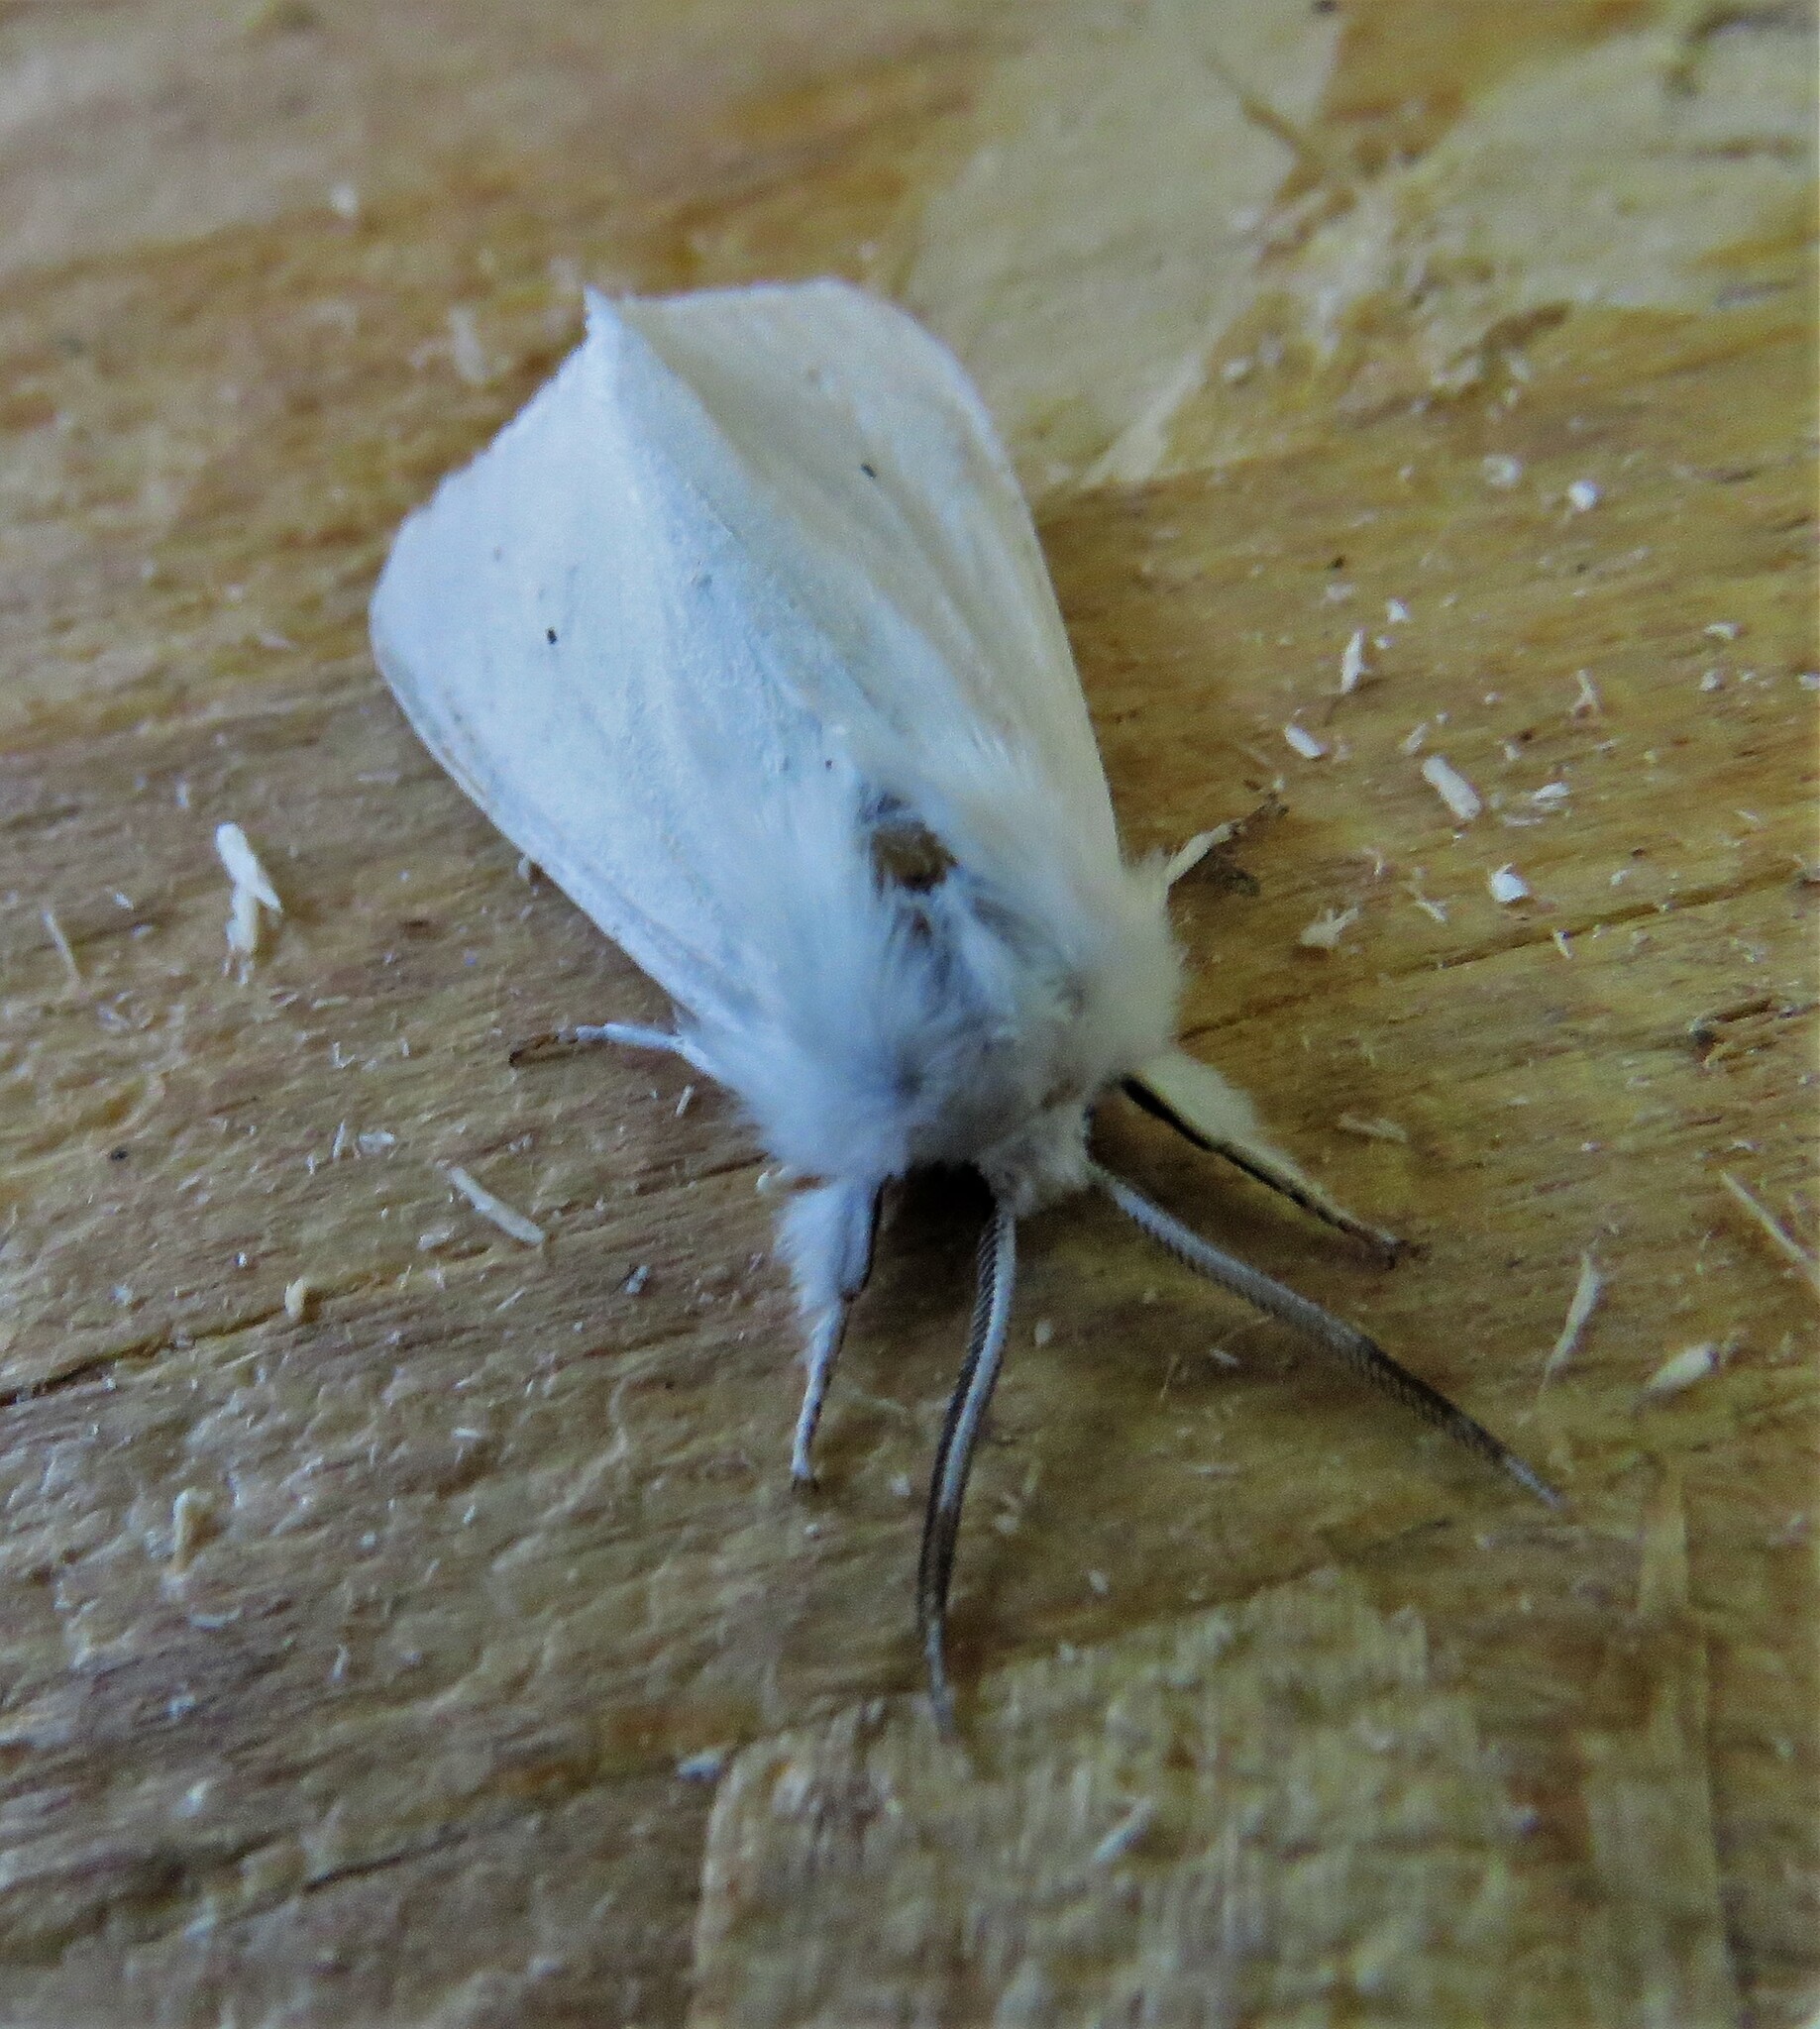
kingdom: Animalia
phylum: Arthropoda
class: Insecta
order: Lepidoptera
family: Erebidae
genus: Spilosoma
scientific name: Spilosoma virginica
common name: Virginia tiger moth
